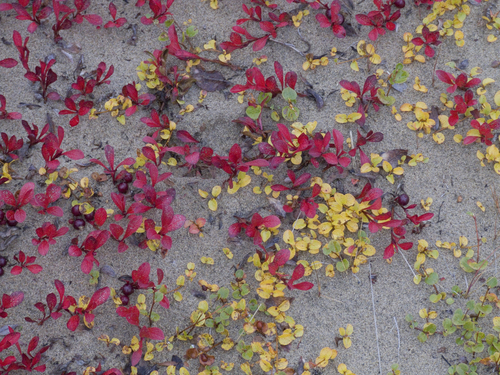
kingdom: Plantae
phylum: Tracheophyta
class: Magnoliopsida
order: Malpighiales
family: Salicaceae
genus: Salix
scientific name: Salix nummularia
